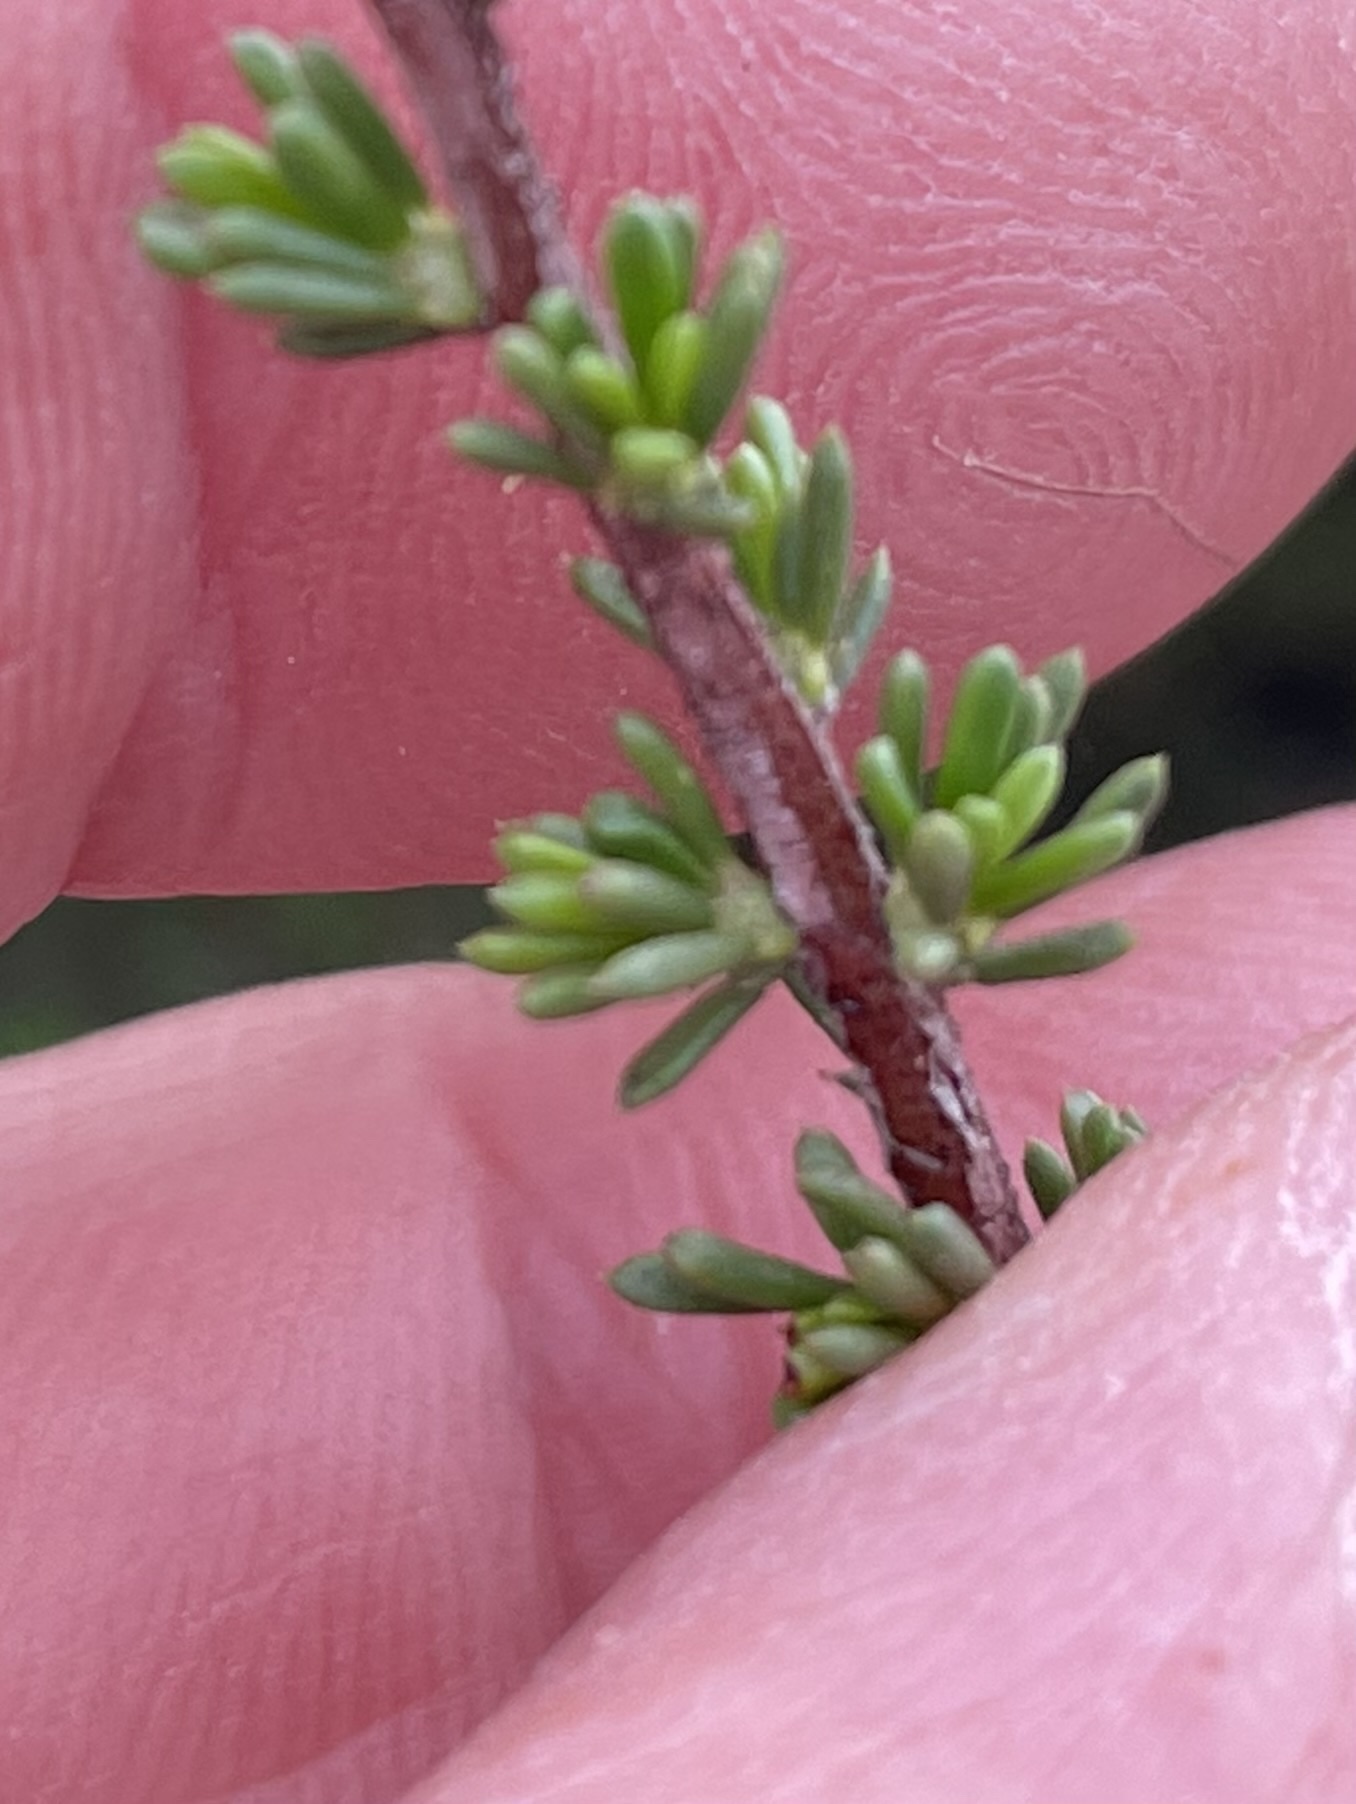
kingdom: Plantae
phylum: Tracheophyta
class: Magnoliopsida
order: Rosales
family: Rosaceae
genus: Adenostoma
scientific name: Adenostoma fasciculatum
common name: Chamise
